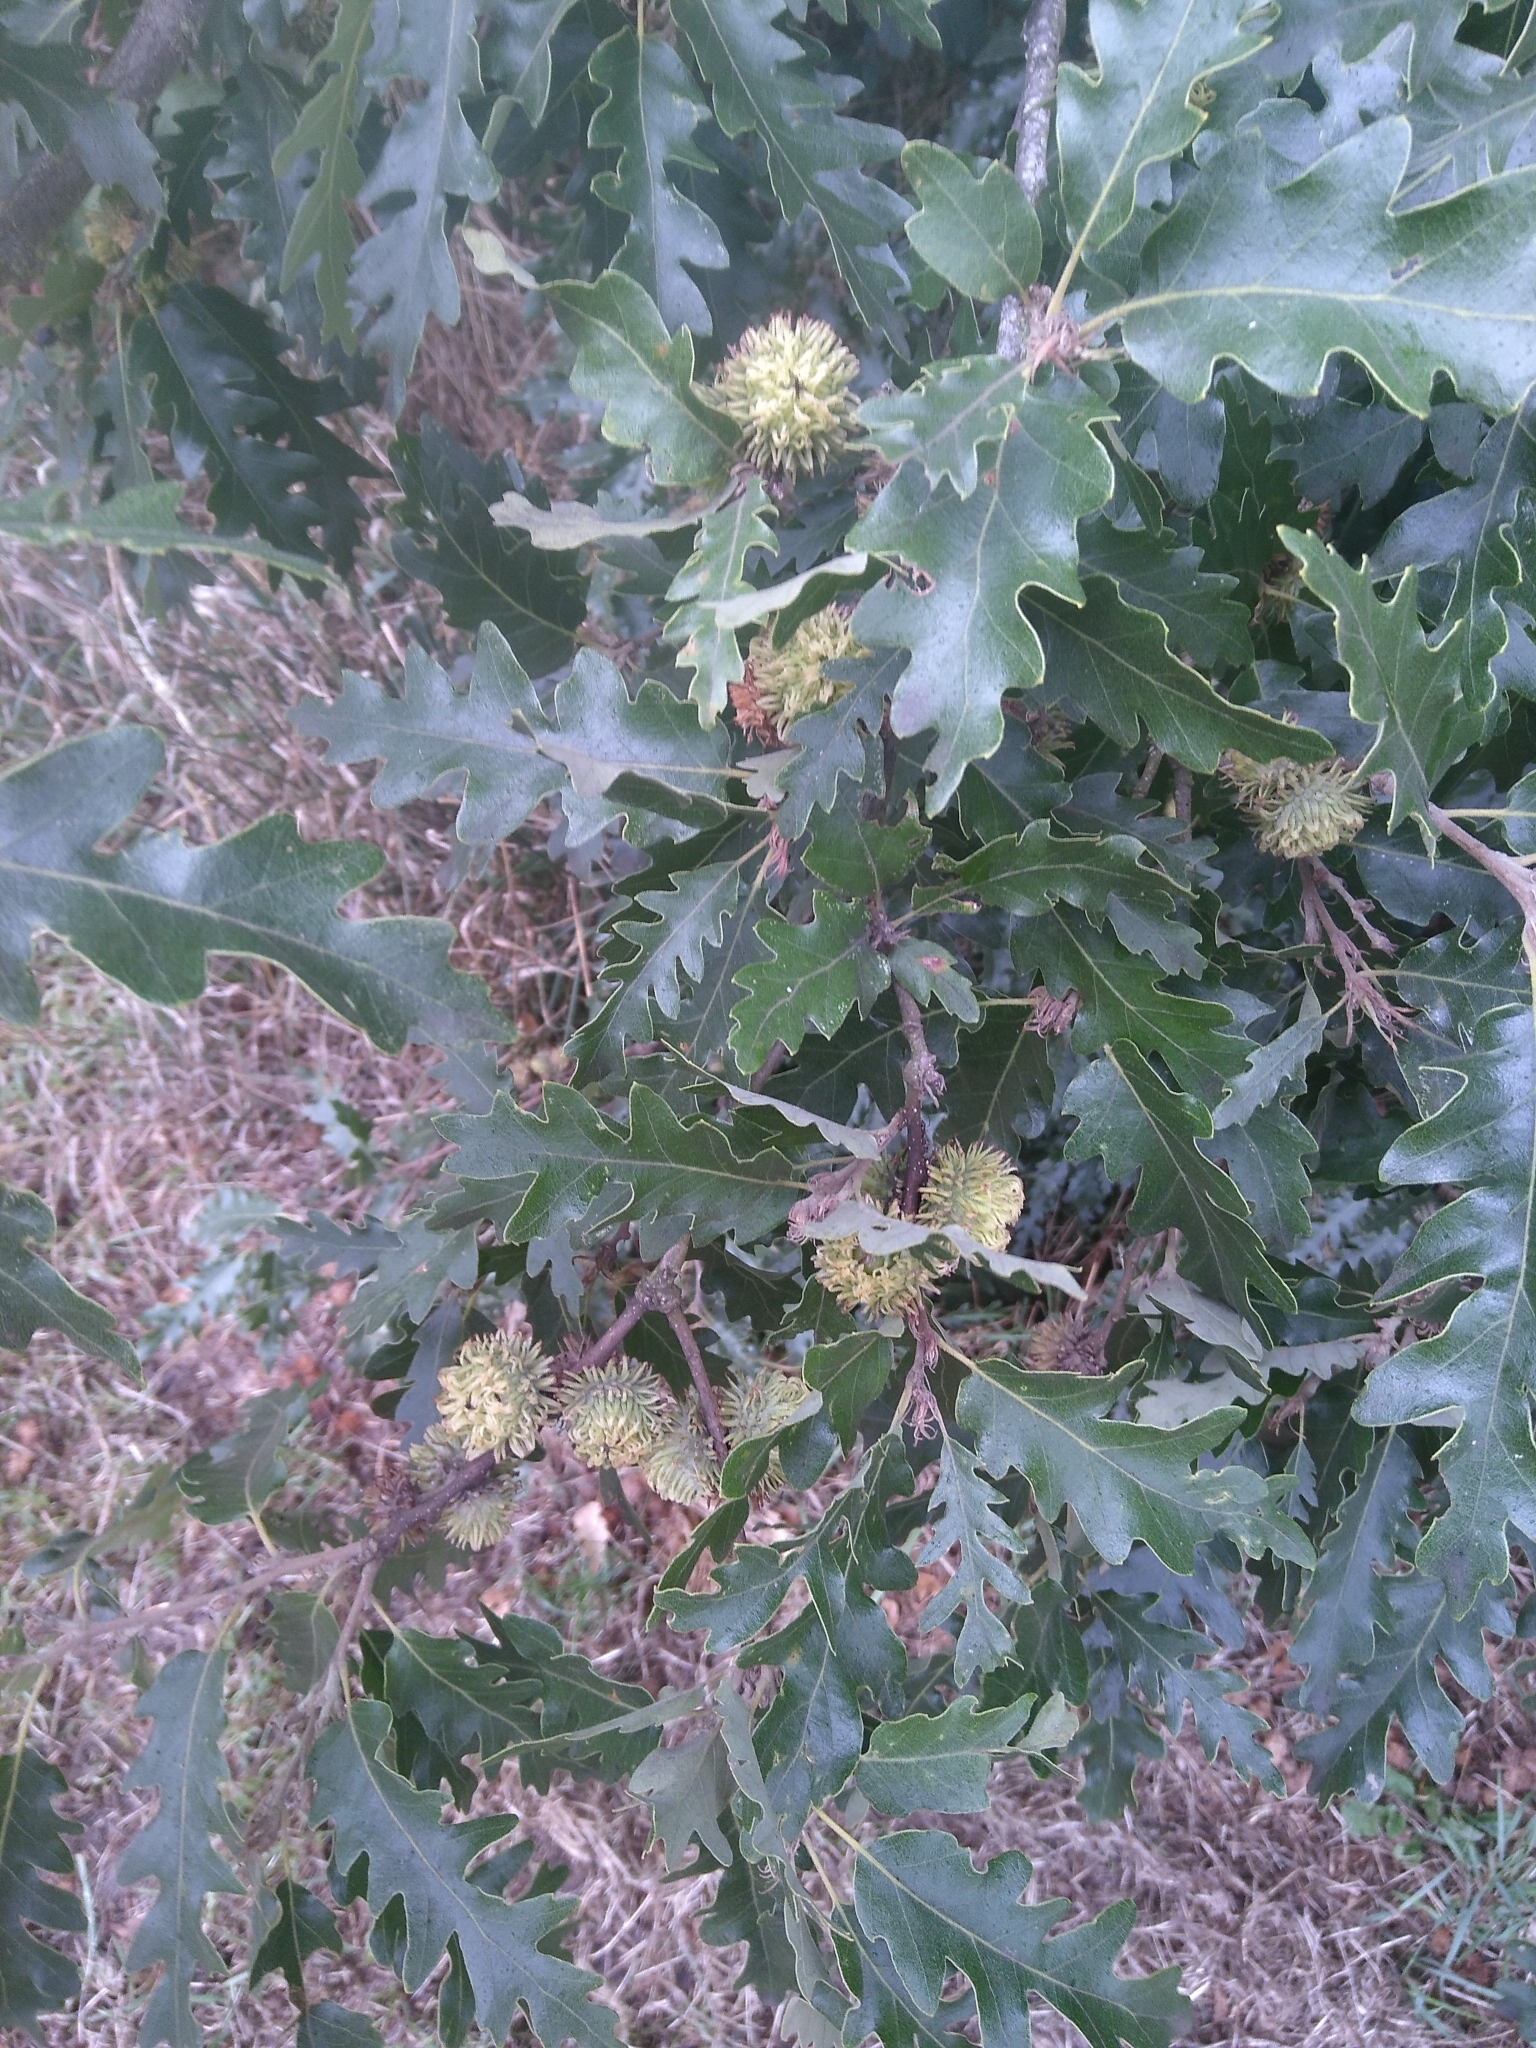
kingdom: Plantae
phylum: Tracheophyta
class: Magnoliopsida
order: Fagales
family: Fagaceae
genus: Quercus
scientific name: Quercus cerris
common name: Turkey oak
